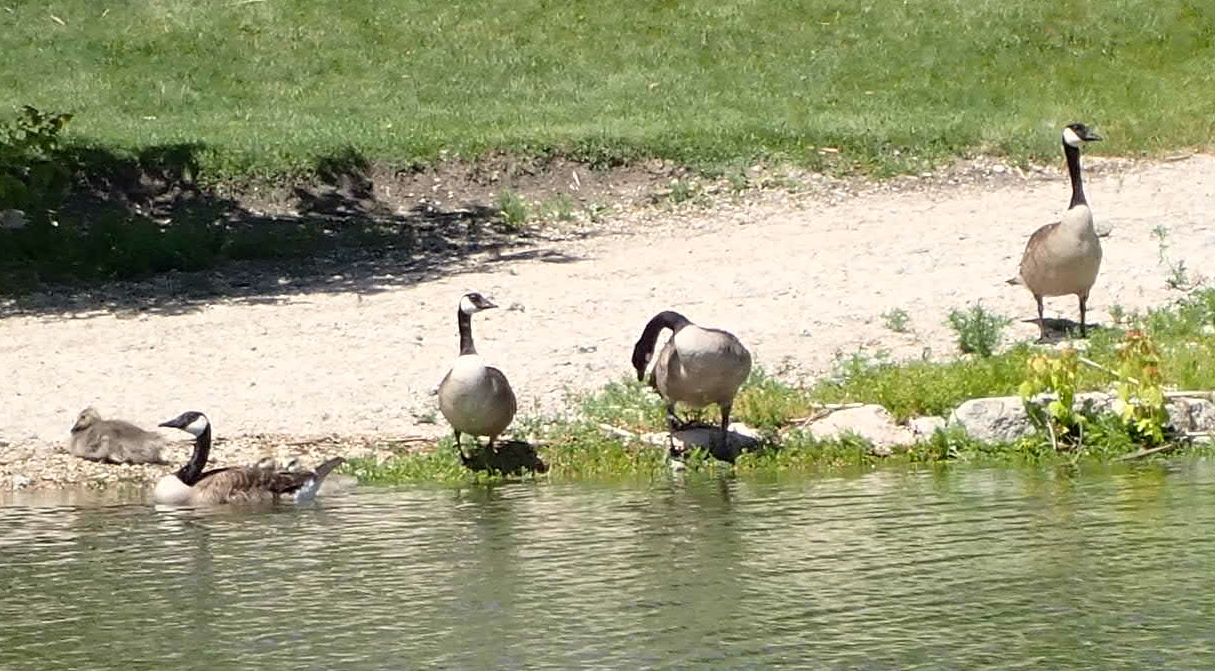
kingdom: Animalia
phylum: Chordata
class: Aves
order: Anseriformes
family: Anatidae
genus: Branta
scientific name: Branta canadensis
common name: Canada goose
